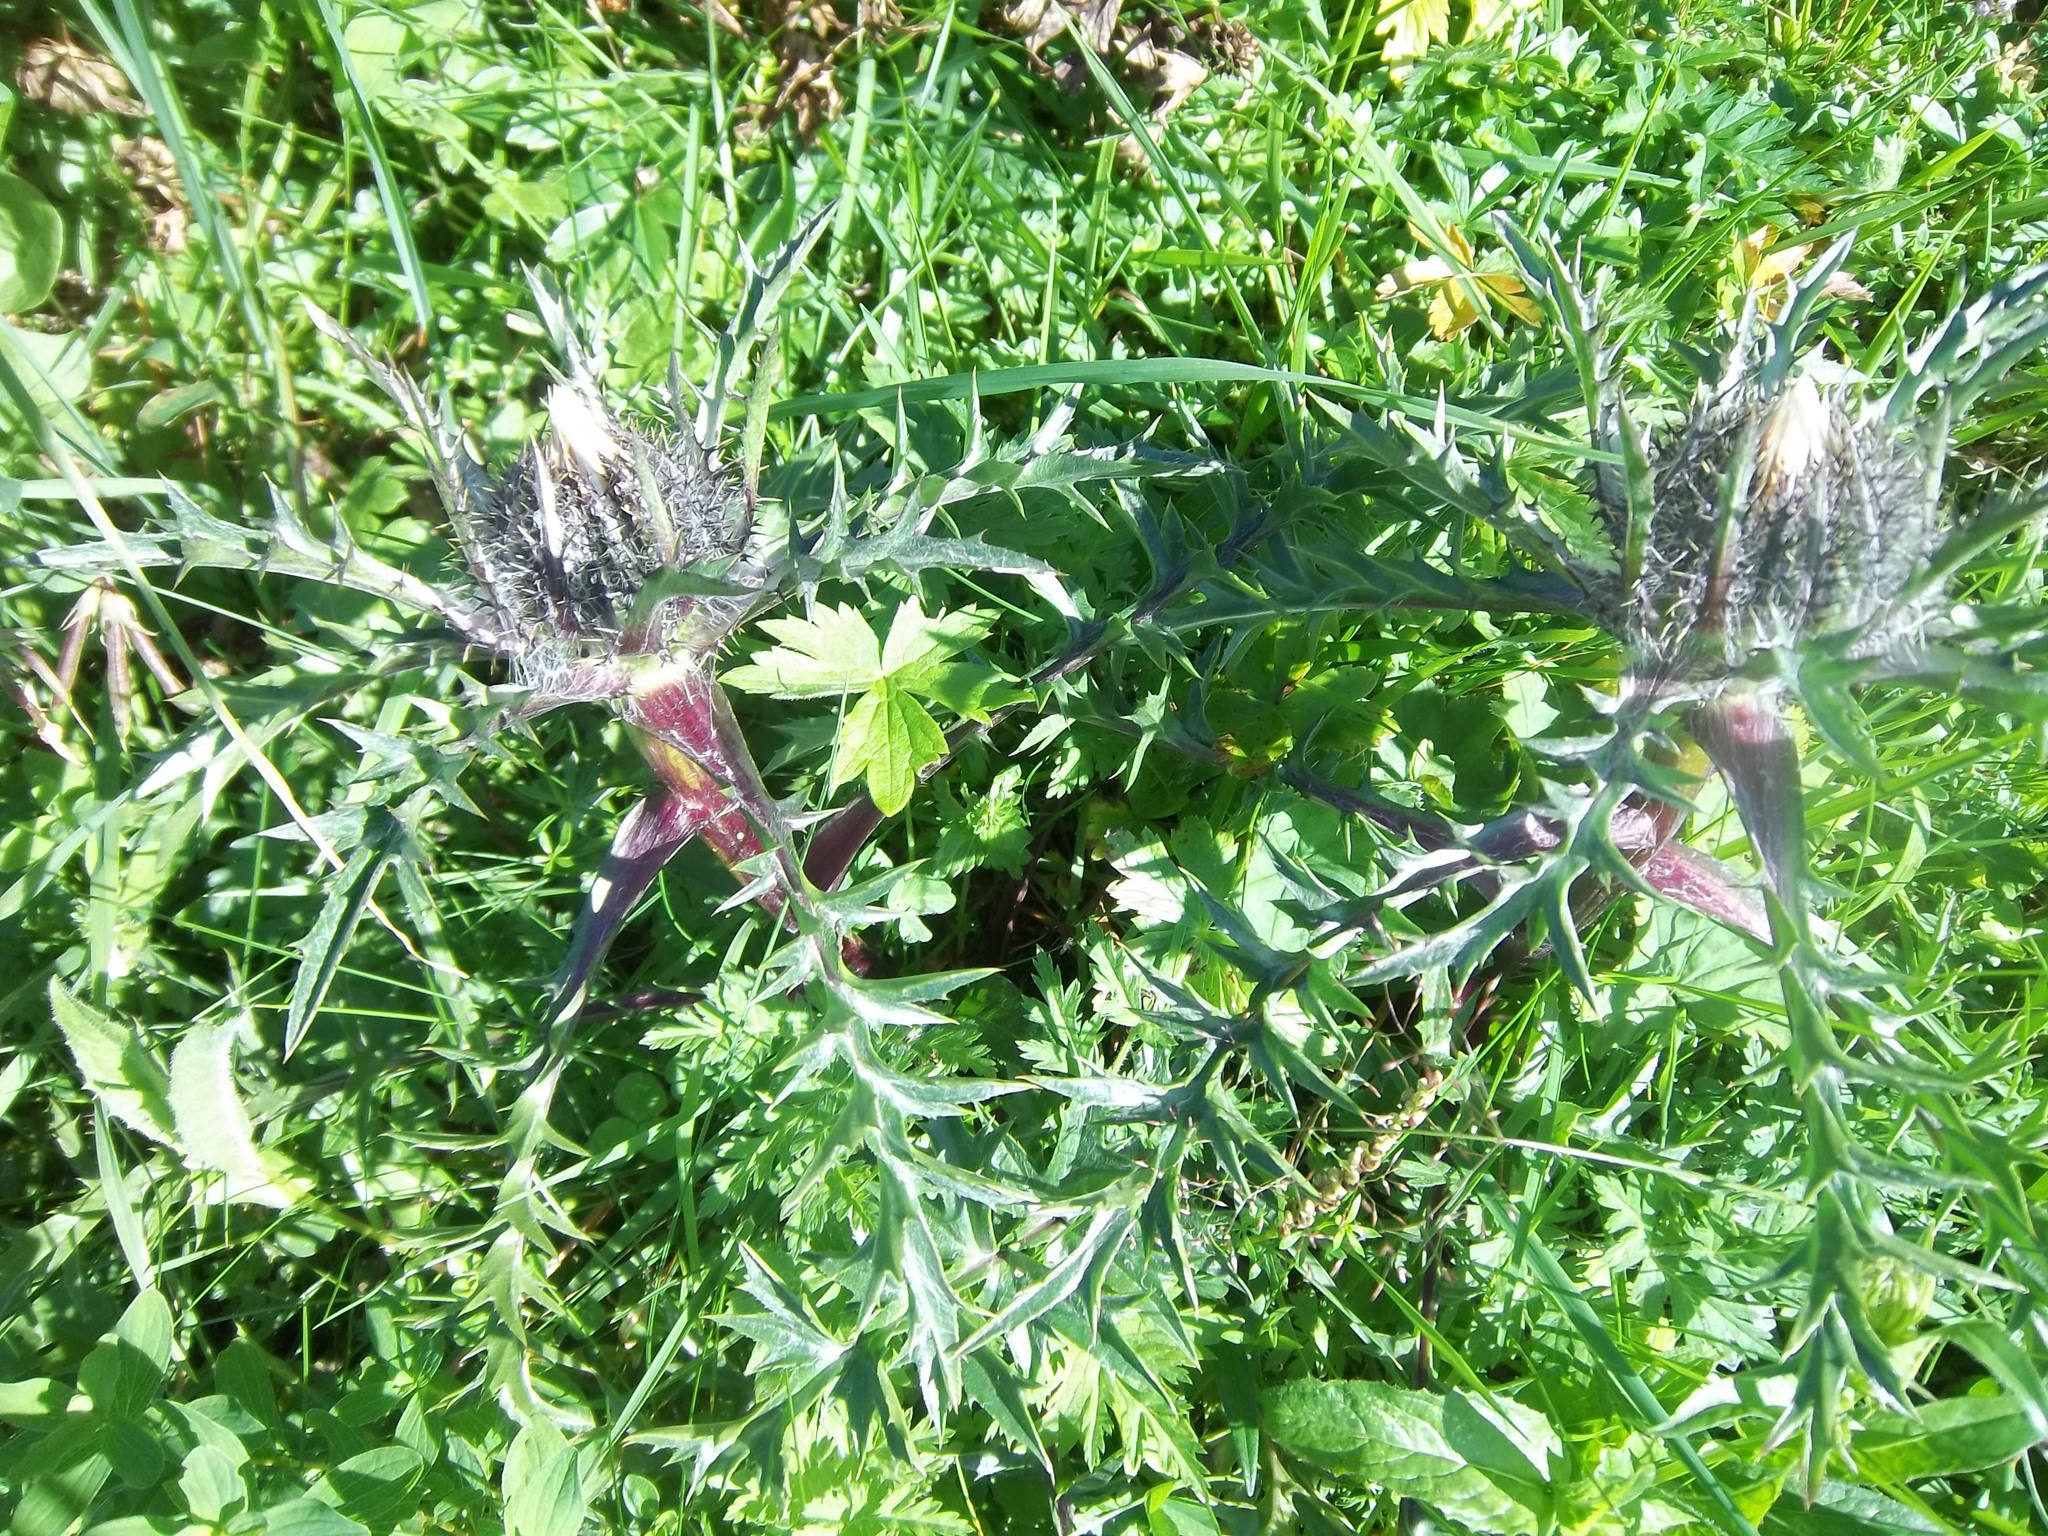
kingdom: Plantae
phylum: Tracheophyta
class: Magnoliopsida
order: Asterales
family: Asteraceae
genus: Carlina
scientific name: Carlina acaulis
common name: Stemless carline thistle
